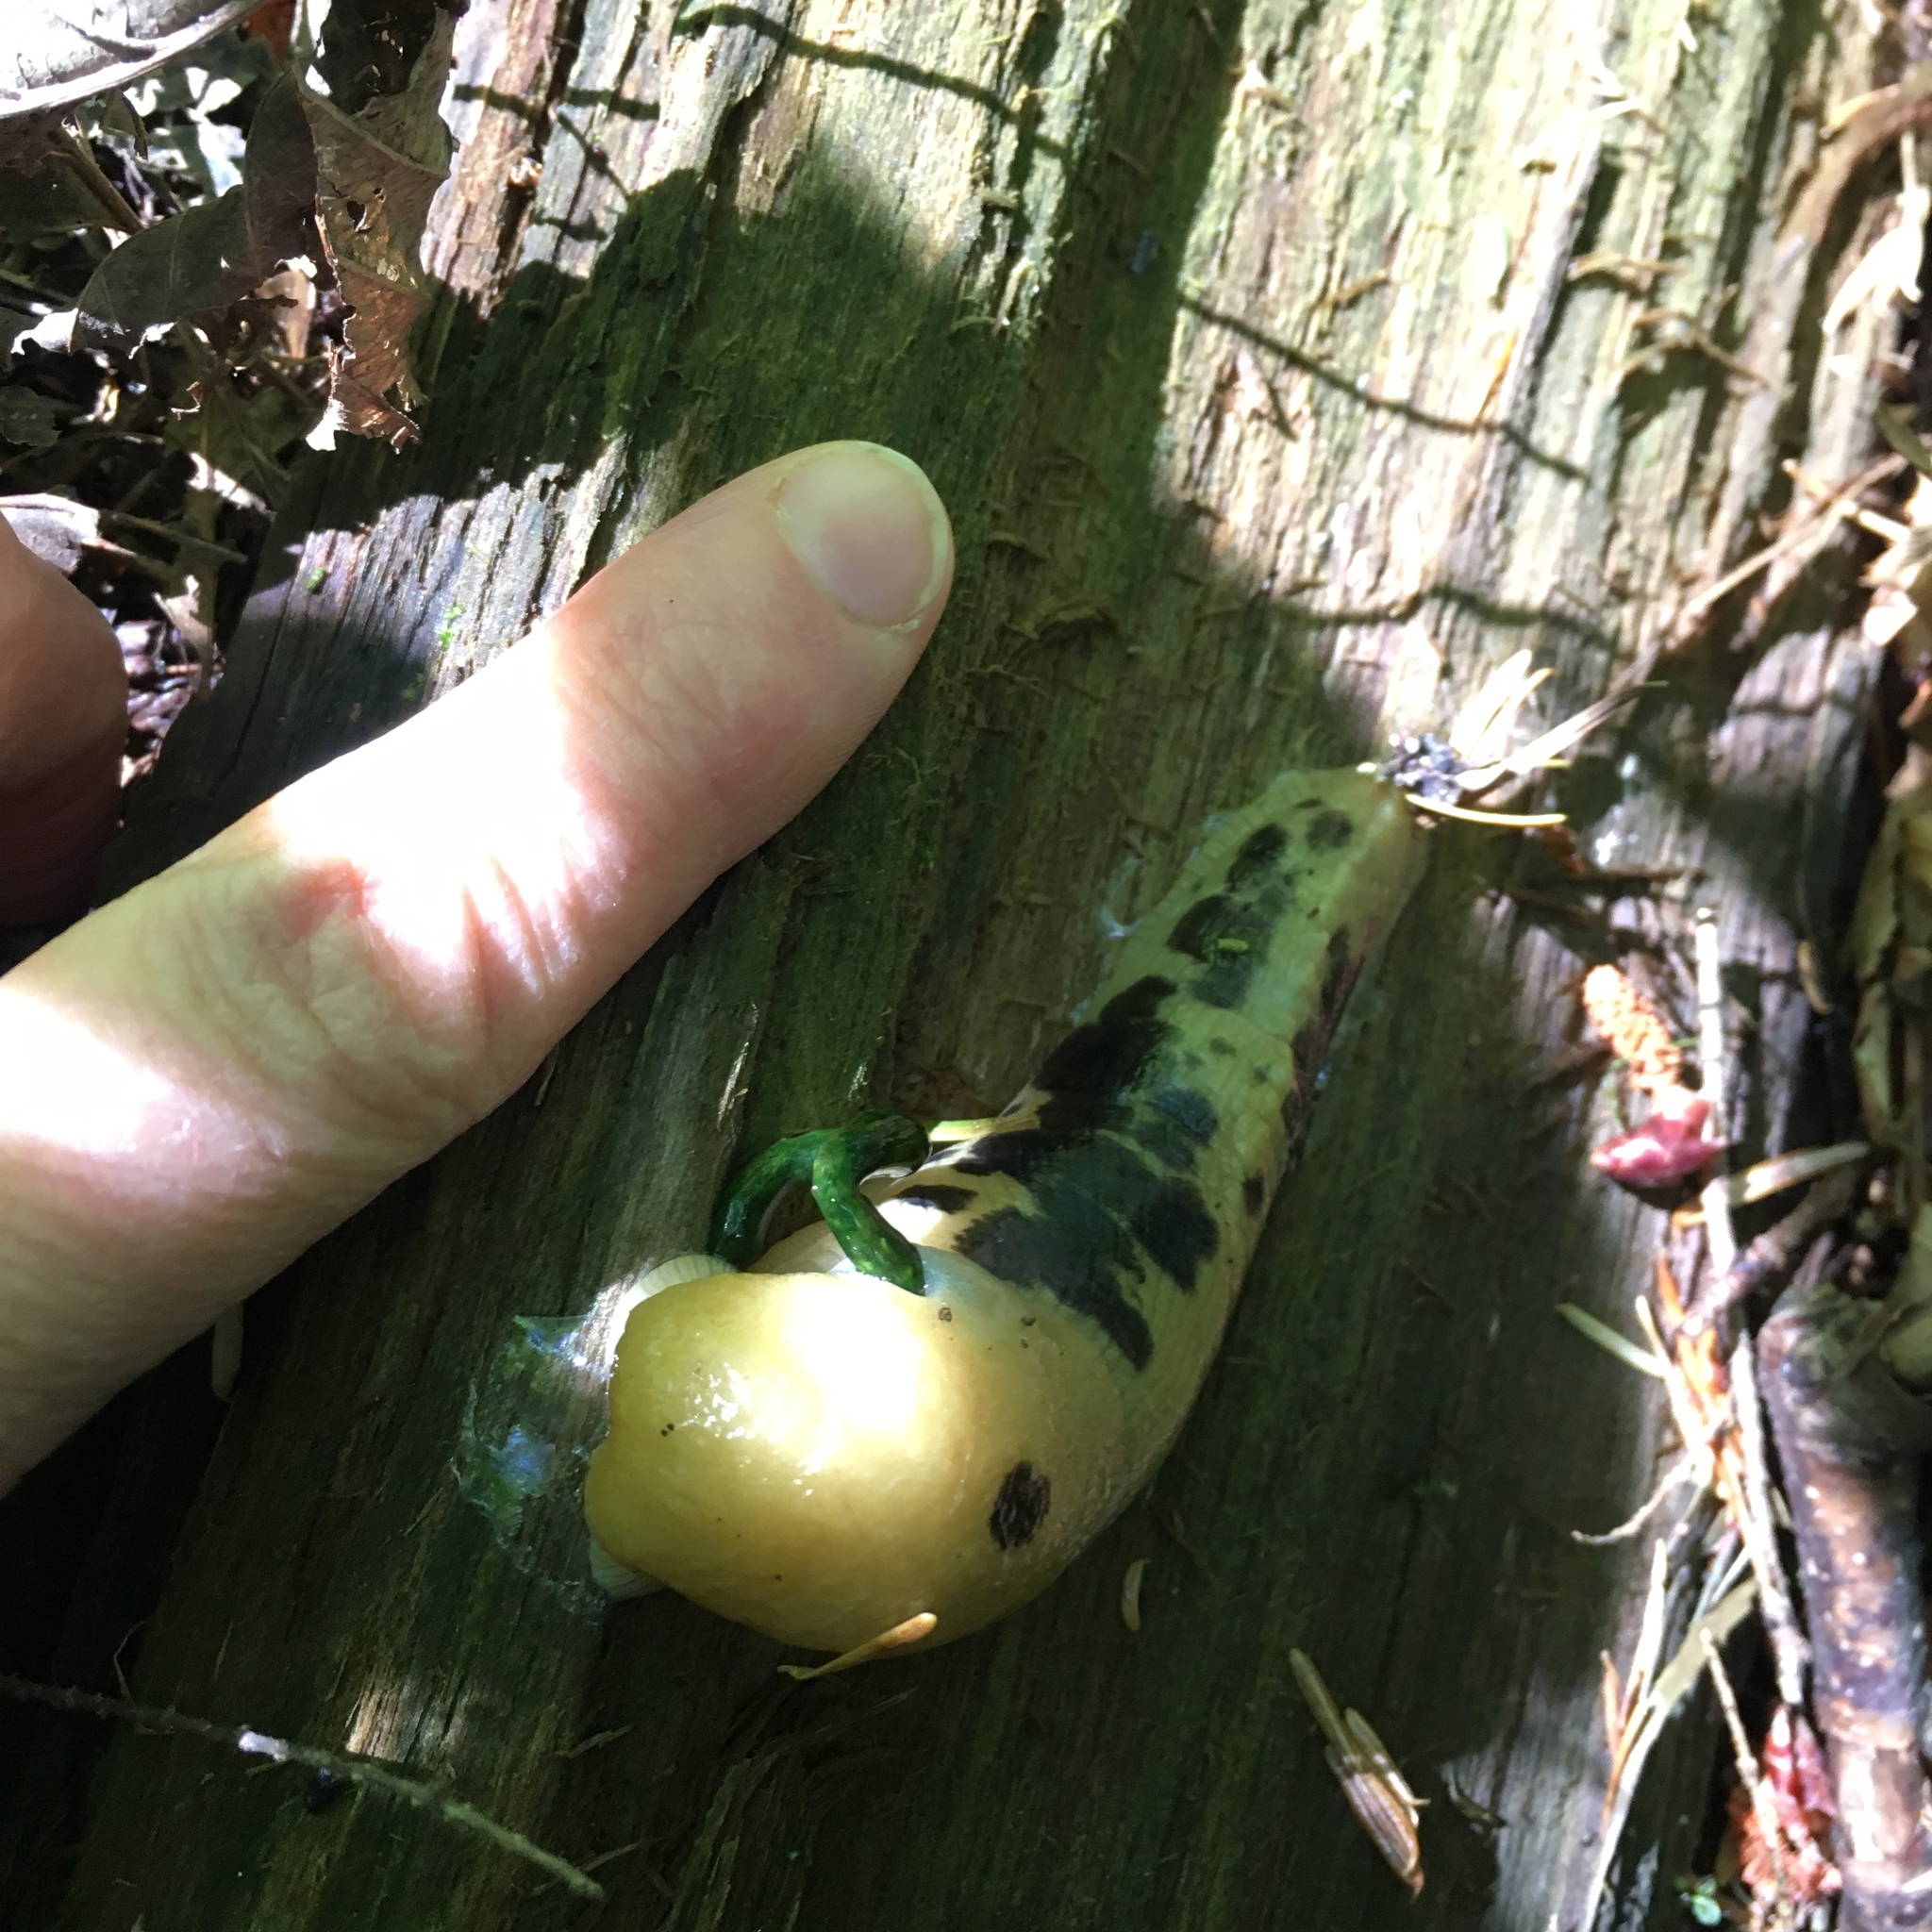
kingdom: Animalia
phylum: Mollusca
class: Gastropoda
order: Stylommatophora
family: Ariolimacidae
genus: Ariolimax
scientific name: Ariolimax columbianus
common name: Pacific banana slug
